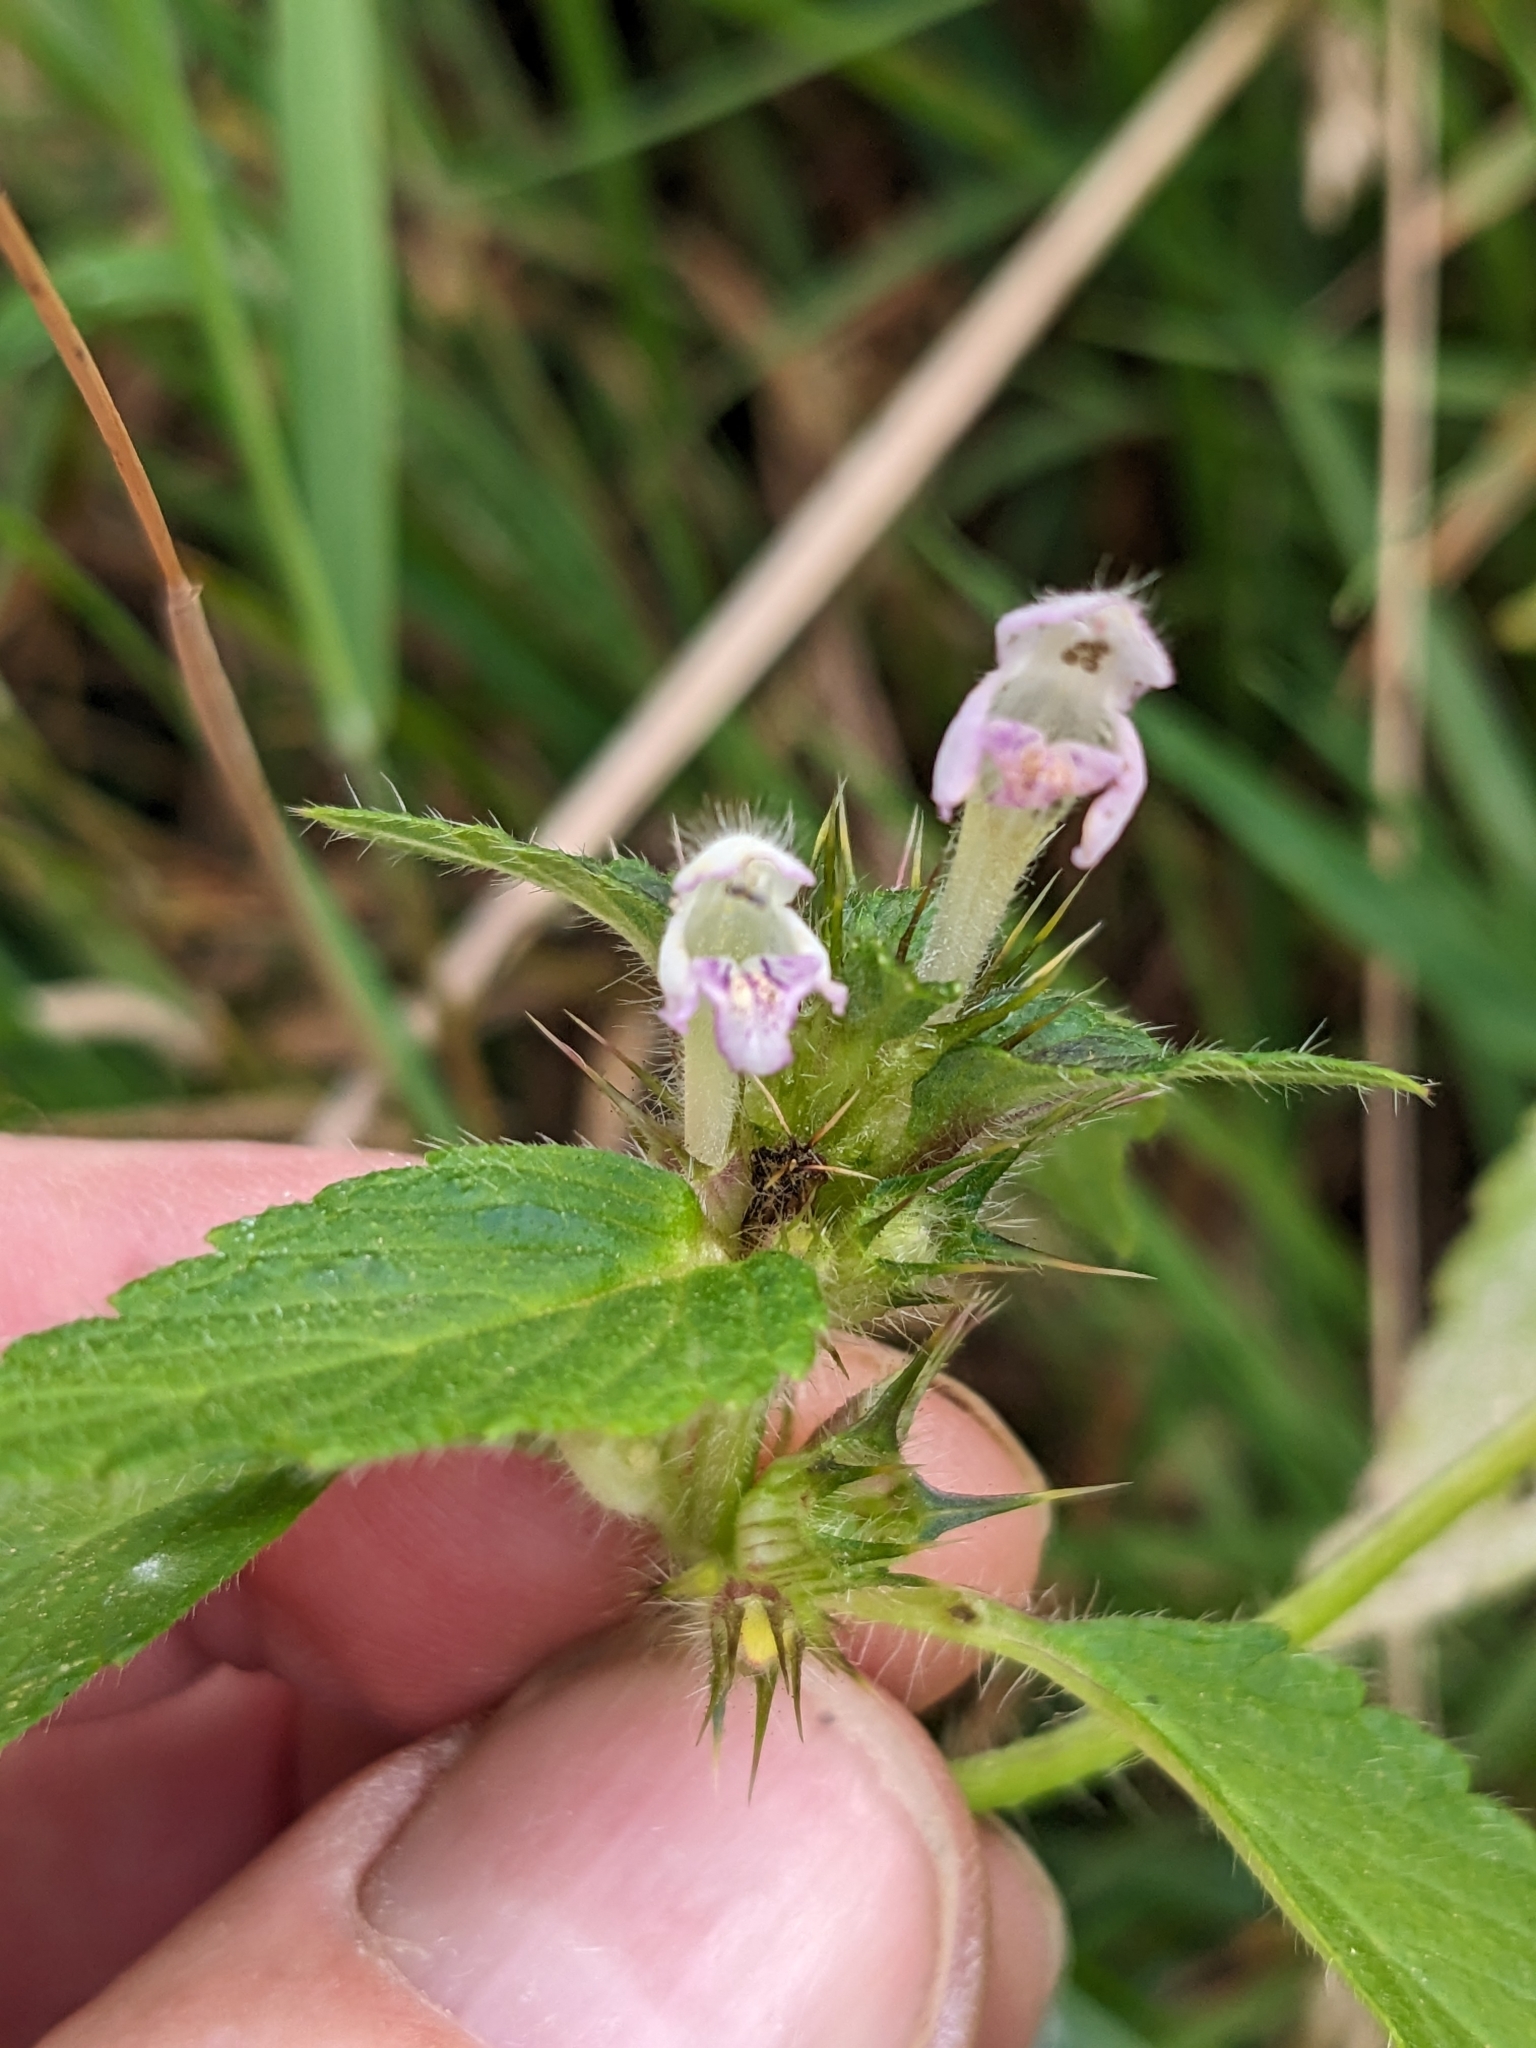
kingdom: Plantae
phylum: Tracheophyta
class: Magnoliopsida
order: Lamiales
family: Lamiaceae
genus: Galeopsis
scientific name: Galeopsis tetrahit
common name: Common hemp-nettle
